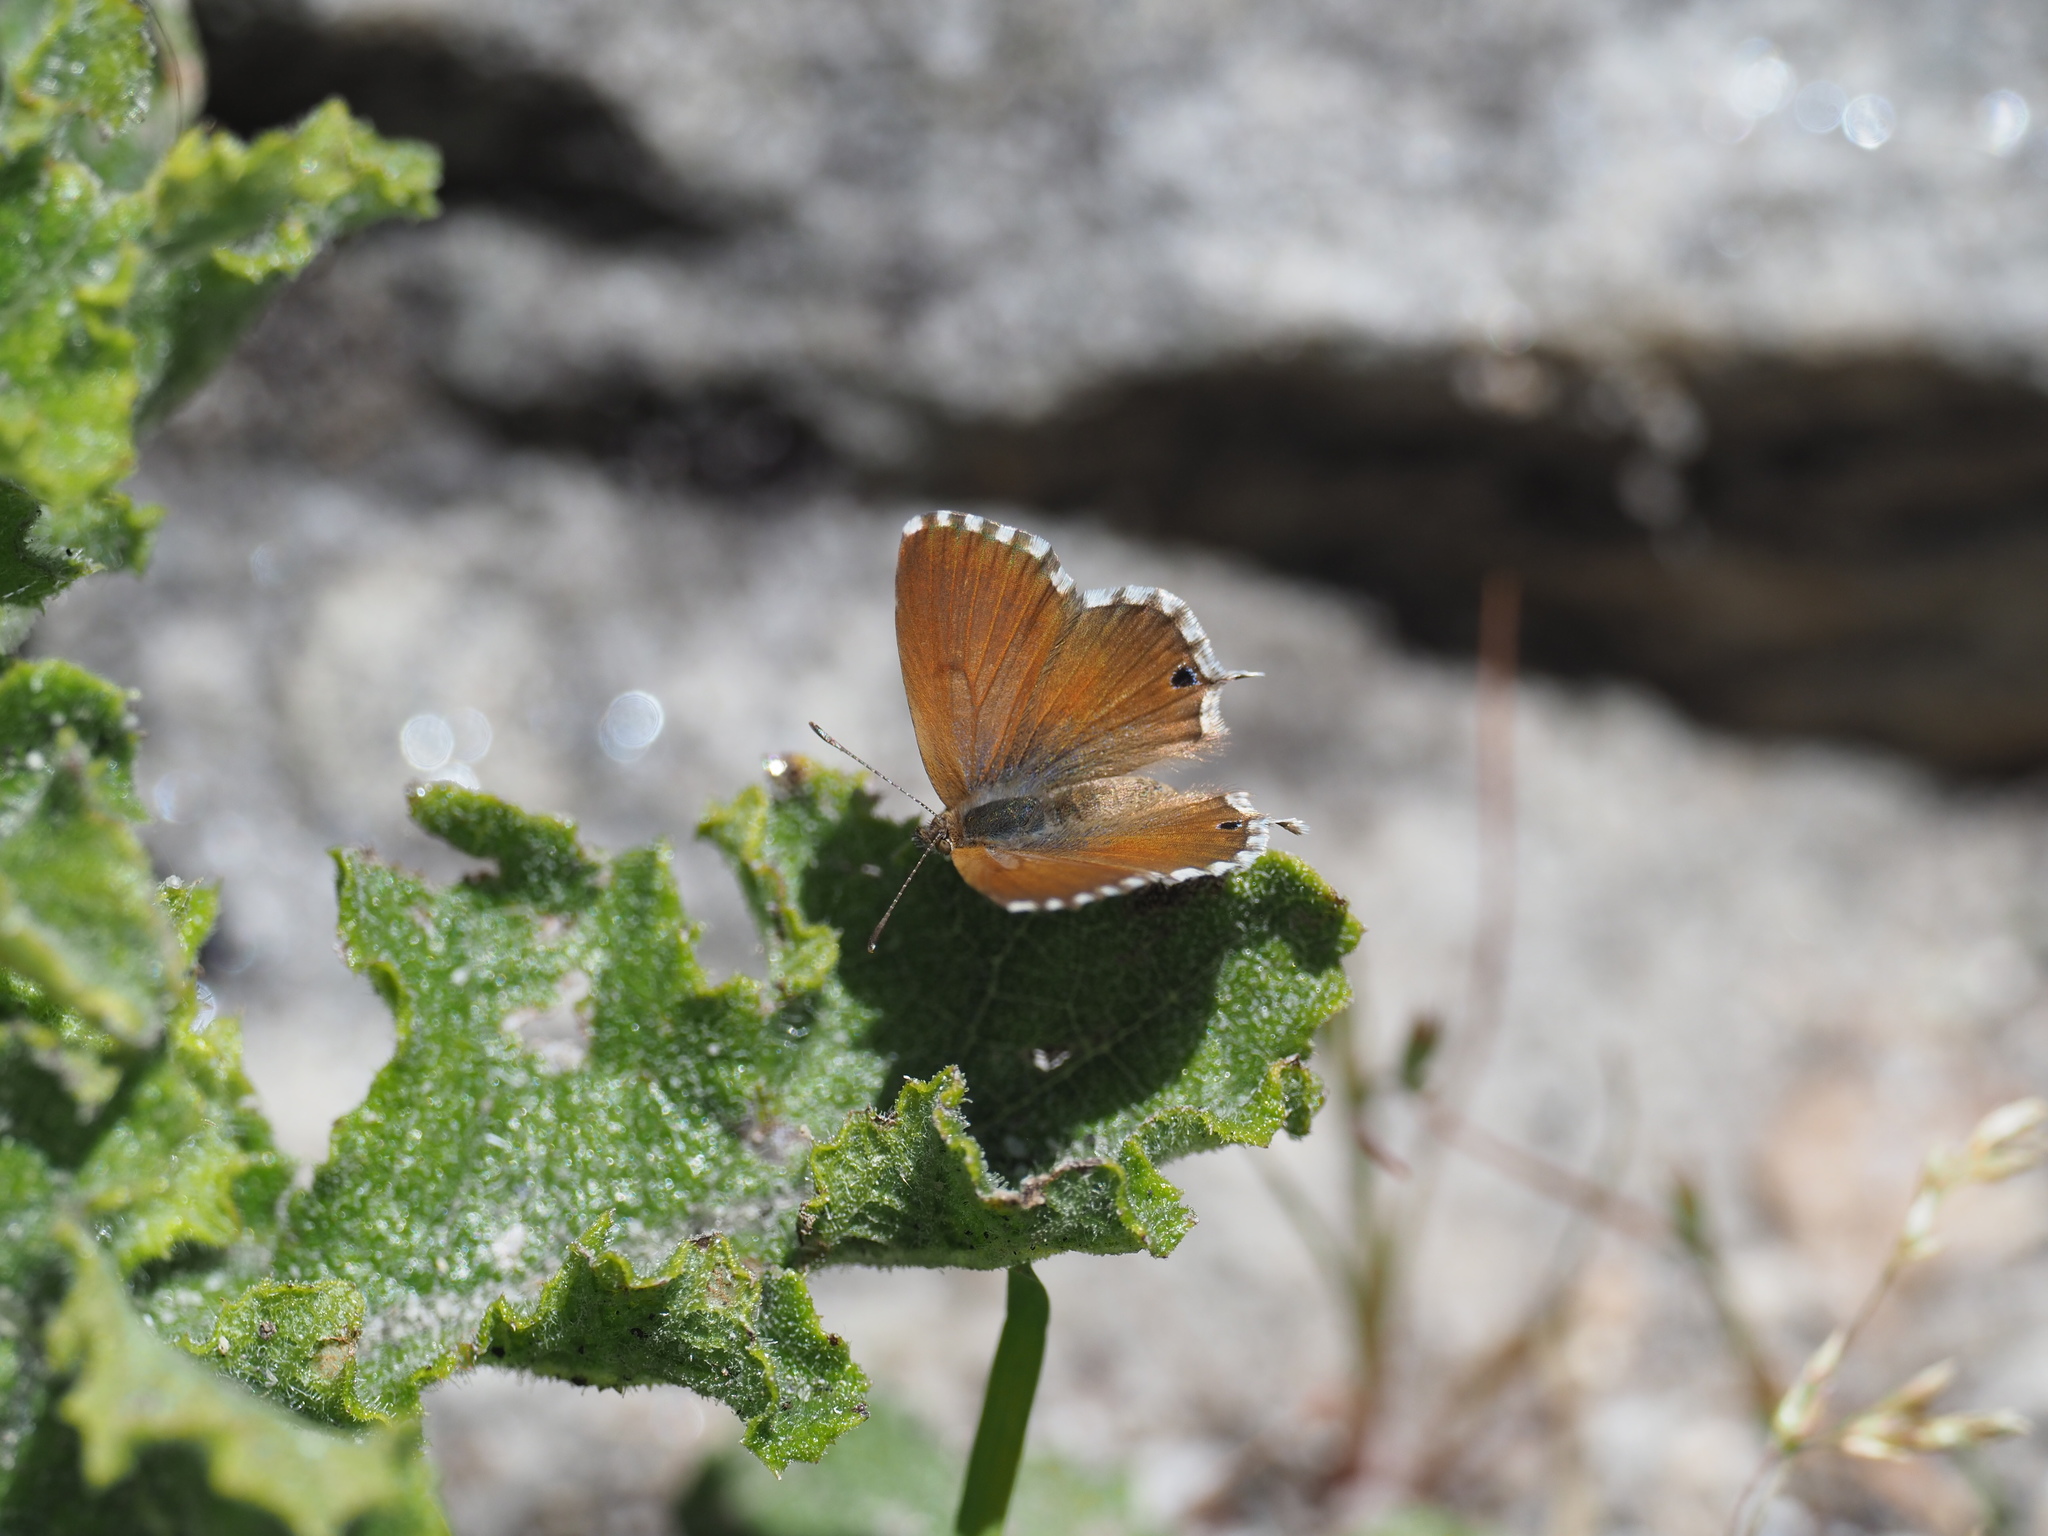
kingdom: Animalia
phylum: Arthropoda
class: Insecta
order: Lepidoptera
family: Lycaenidae
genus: Cacyreus
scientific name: Cacyreus fracta
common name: Water bronze
